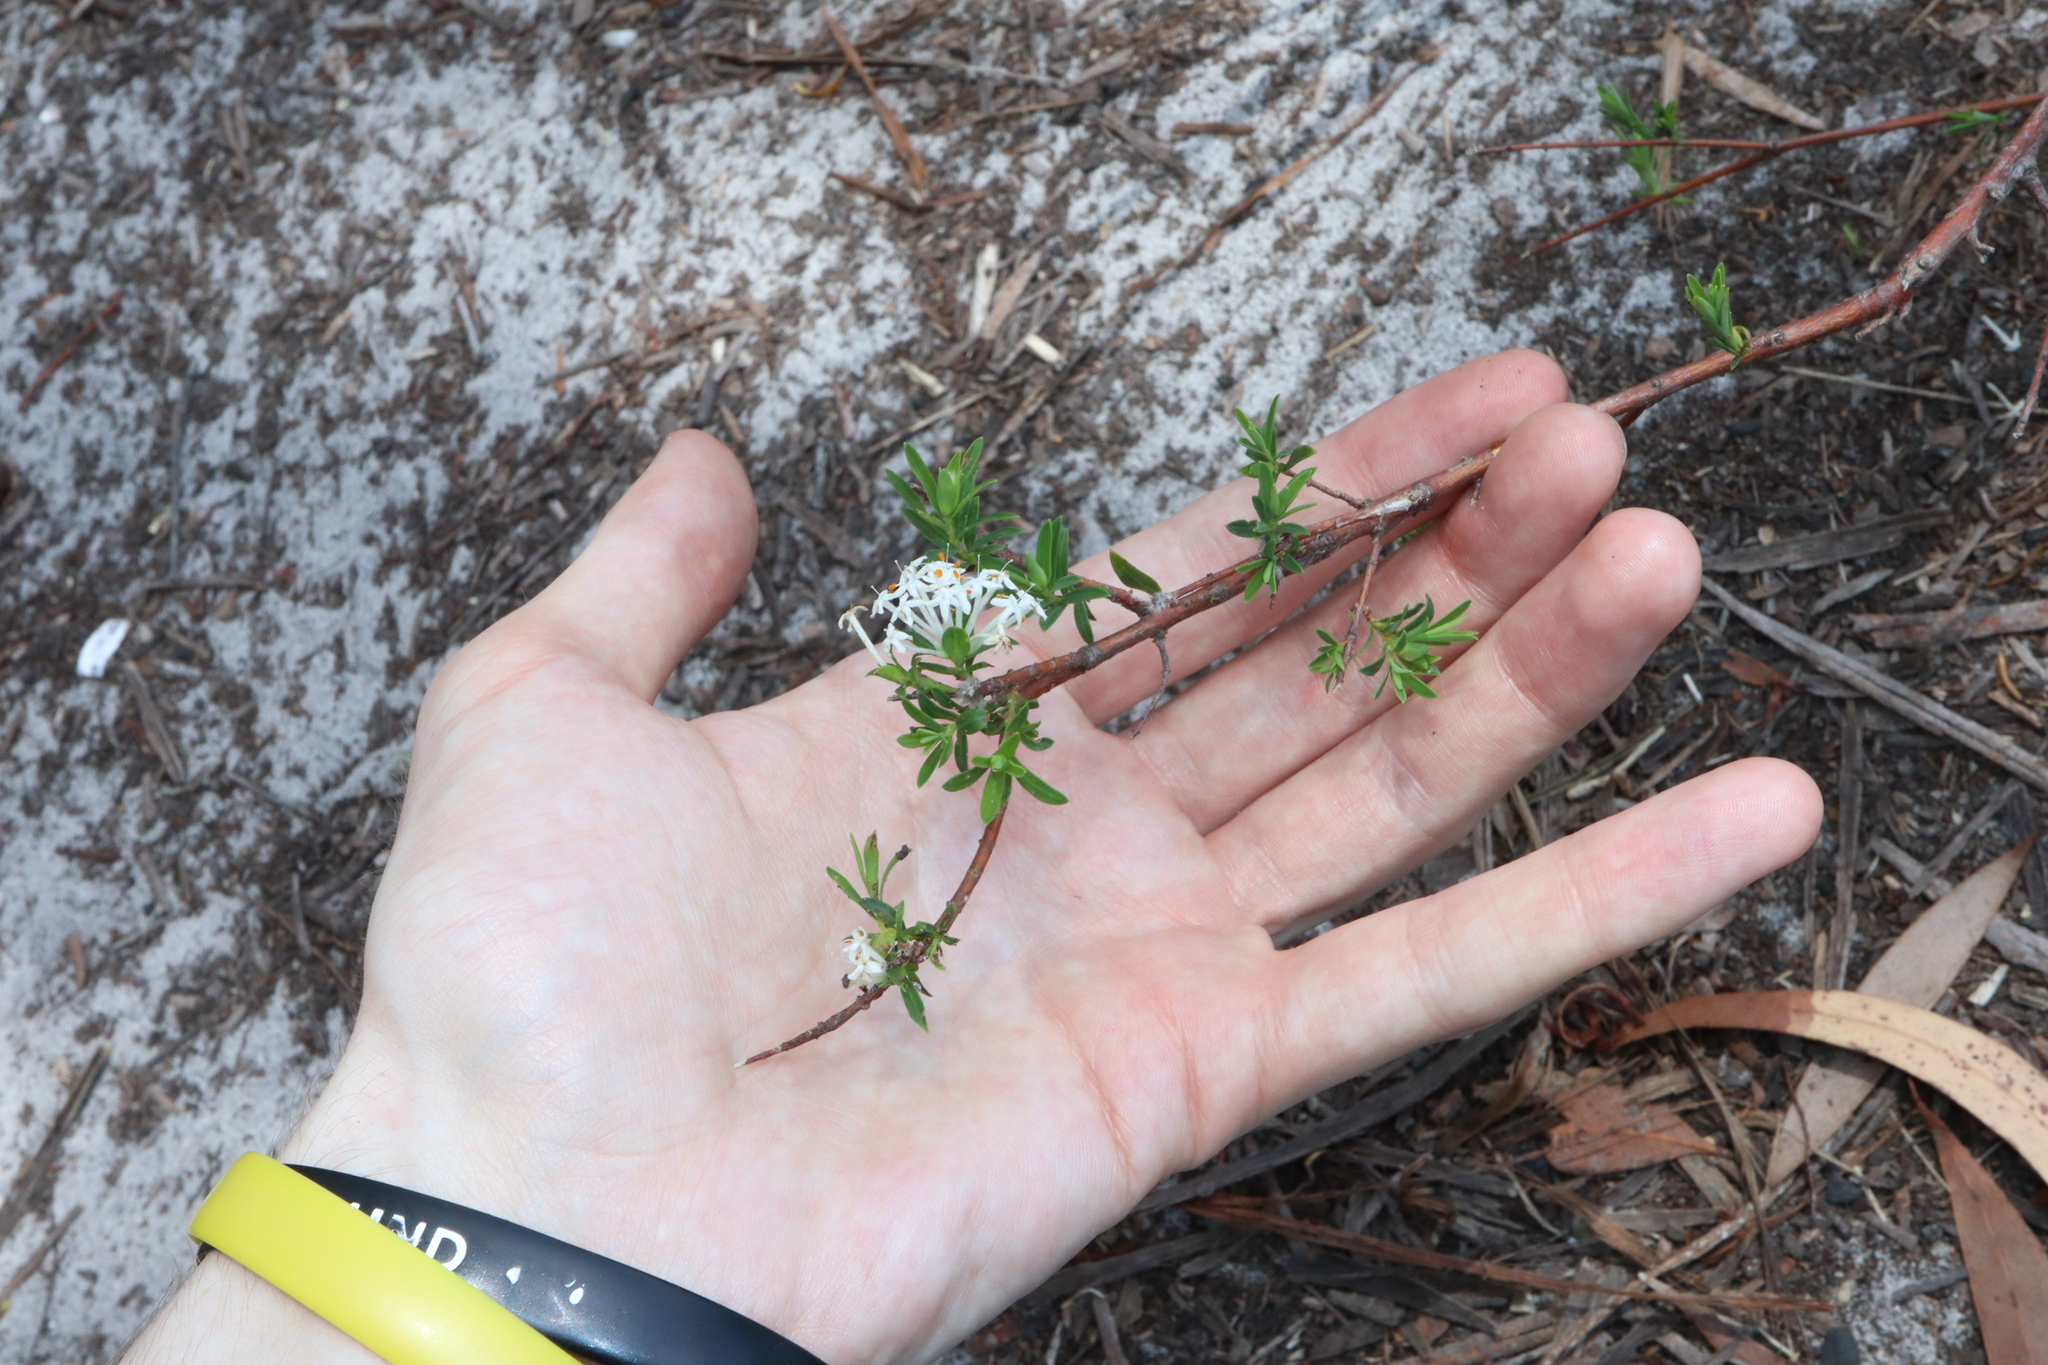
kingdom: Plantae
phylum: Tracheophyta
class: Magnoliopsida
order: Malvales
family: Thymelaeaceae
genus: Pimelea
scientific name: Pimelea linifolia
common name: Queen-of-the-bush
